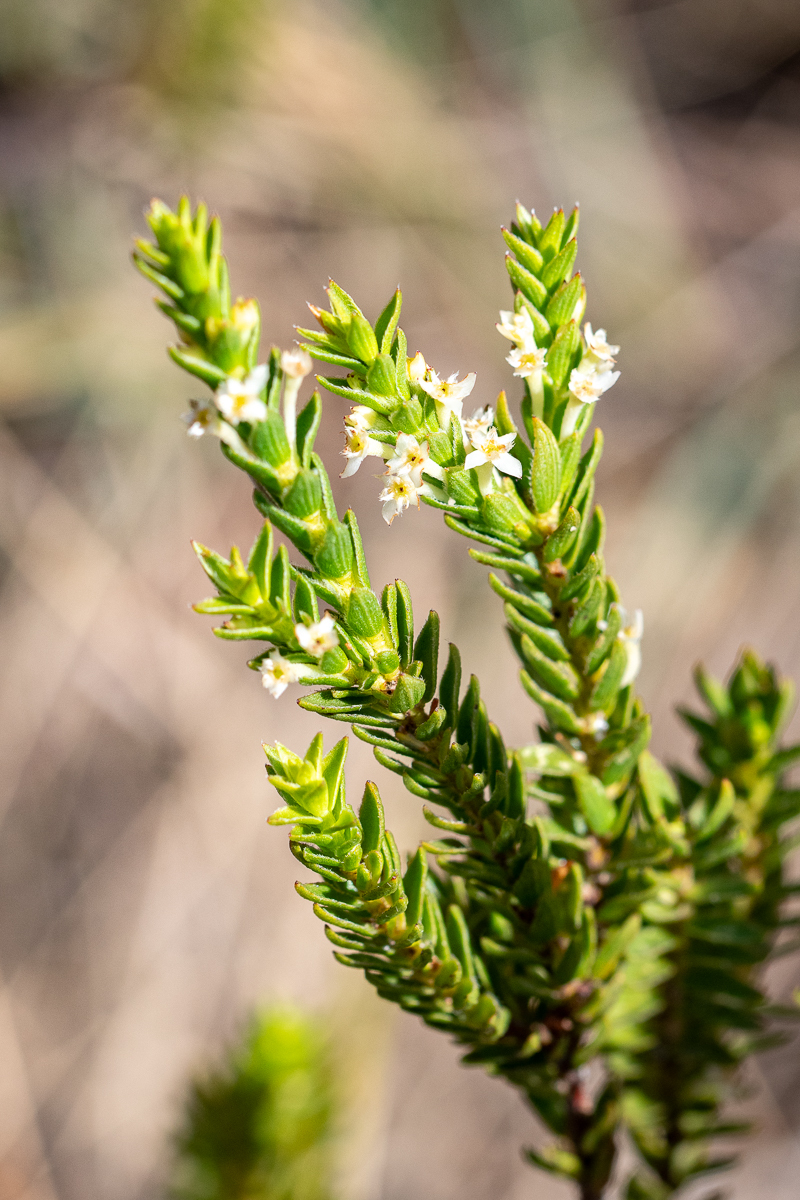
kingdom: Plantae
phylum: Tracheophyta
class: Magnoliopsida
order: Malvales
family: Thymelaeaceae
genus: Struthiola
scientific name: Struthiola striata
